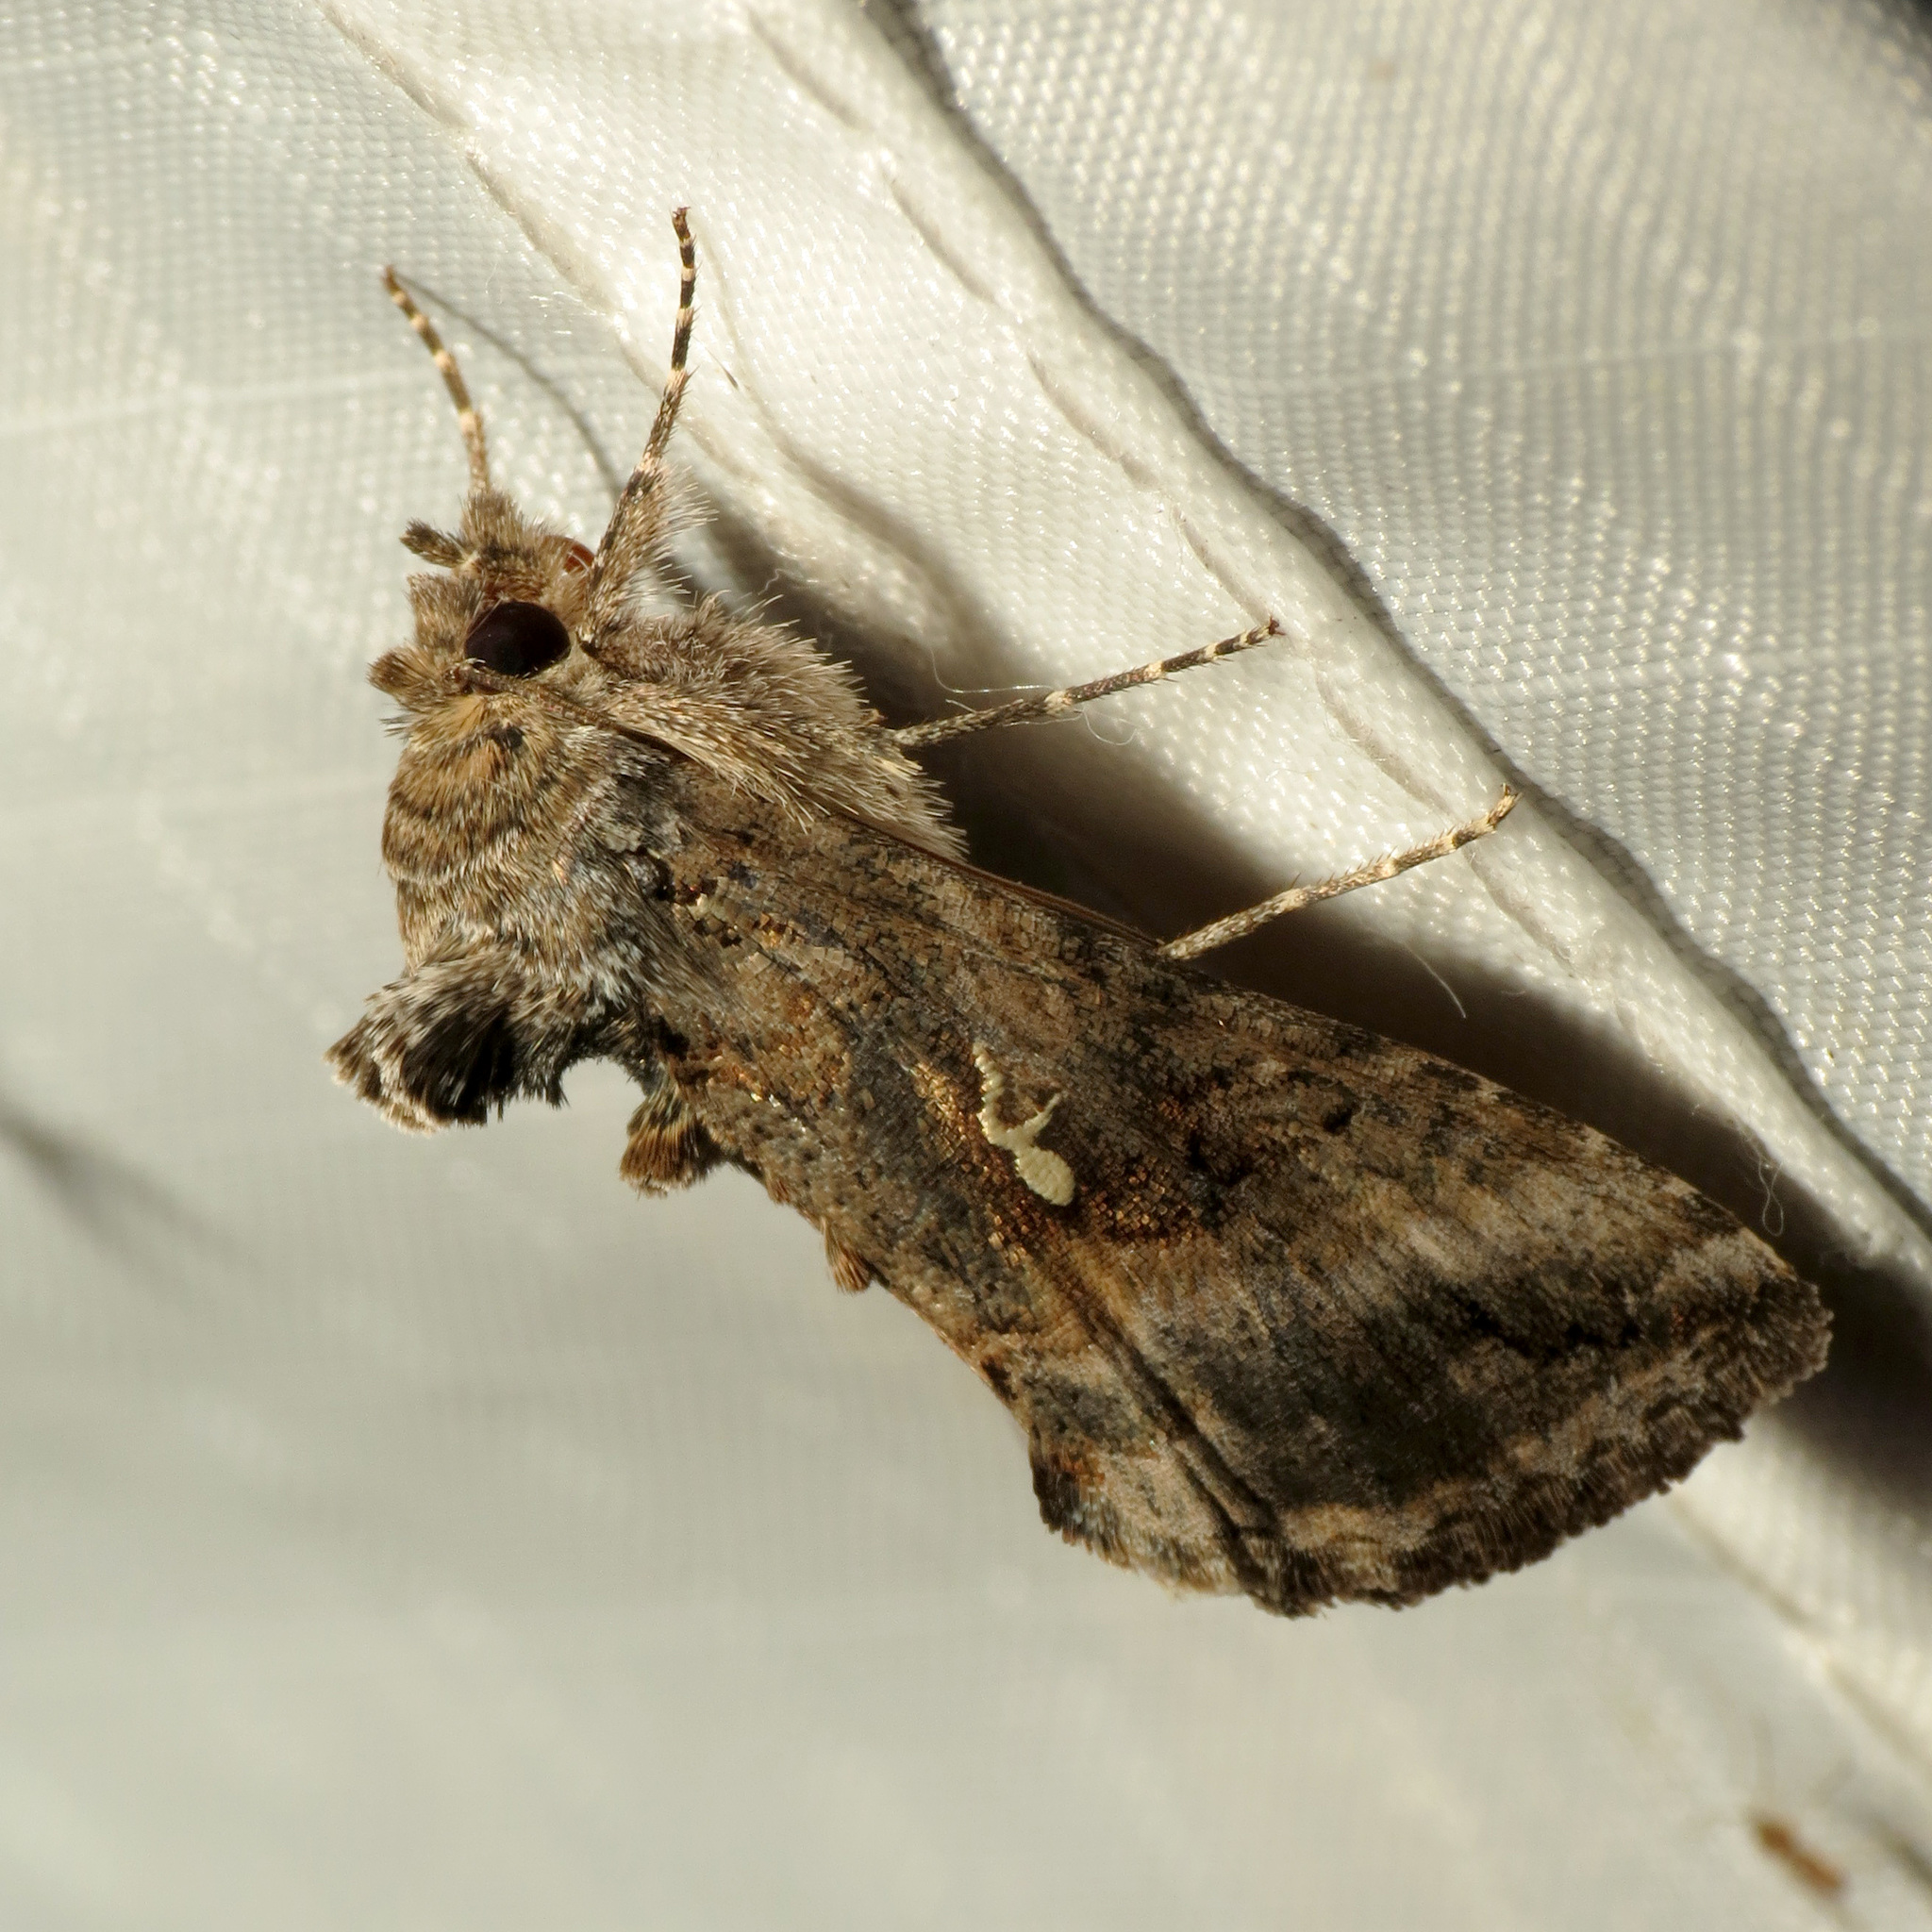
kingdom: Animalia
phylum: Arthropoda
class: Insecta
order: Lepidoptera
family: Noctuidae
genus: Rachiplusia
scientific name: Rachiplusia ou
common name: Gray looper moth
